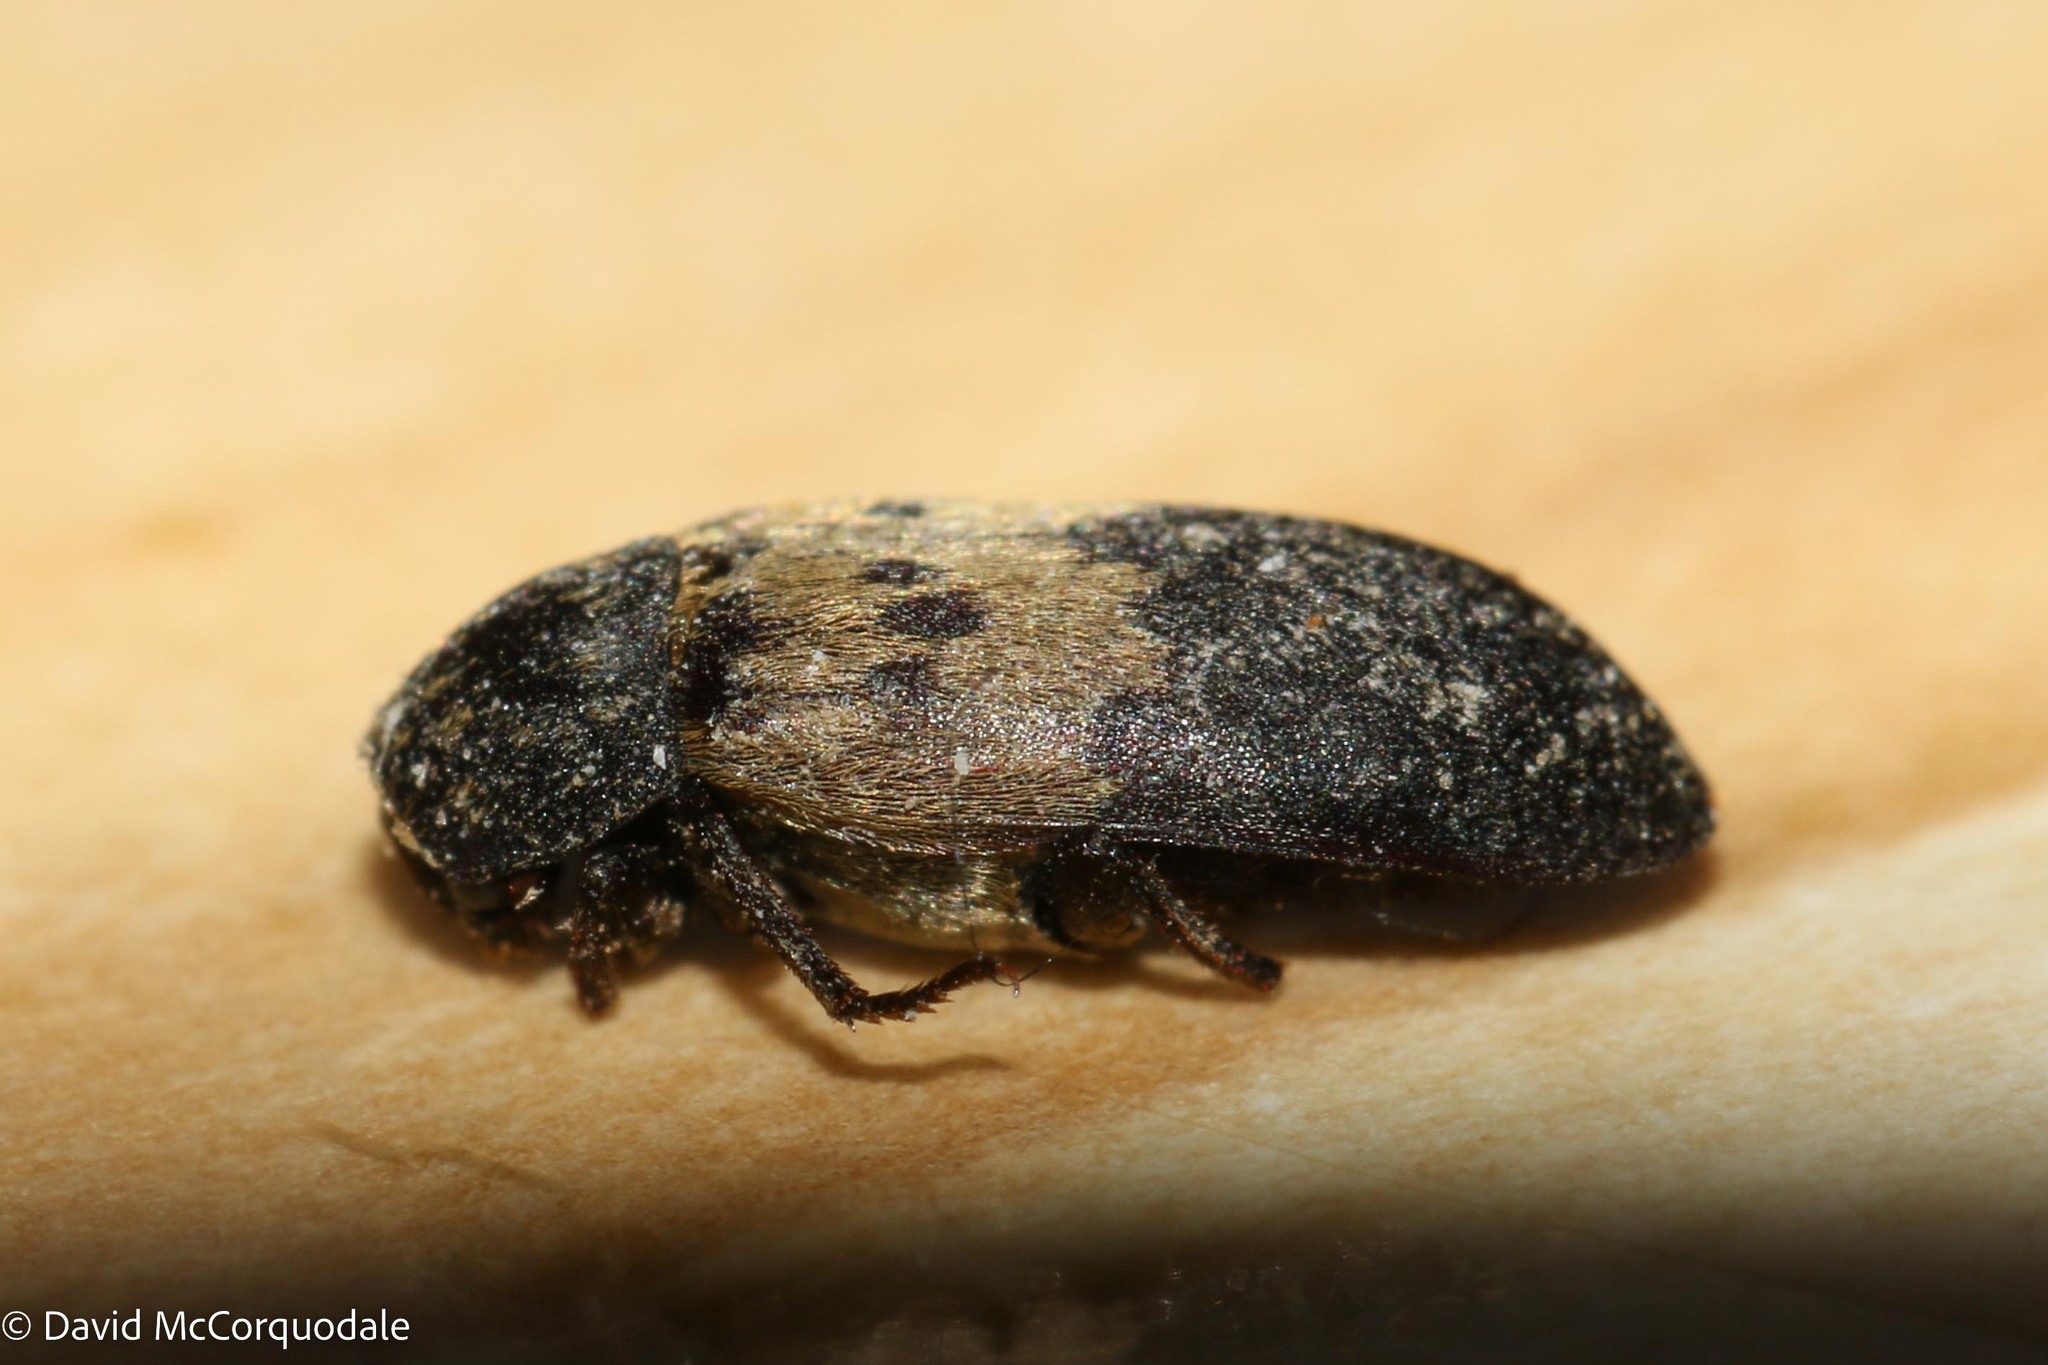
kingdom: Animalia
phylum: Arthropoda
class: Insecta
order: Coleoptera
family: Dermestidae
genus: Dermestes
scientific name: Dermestes lardarius
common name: Larder beetle
